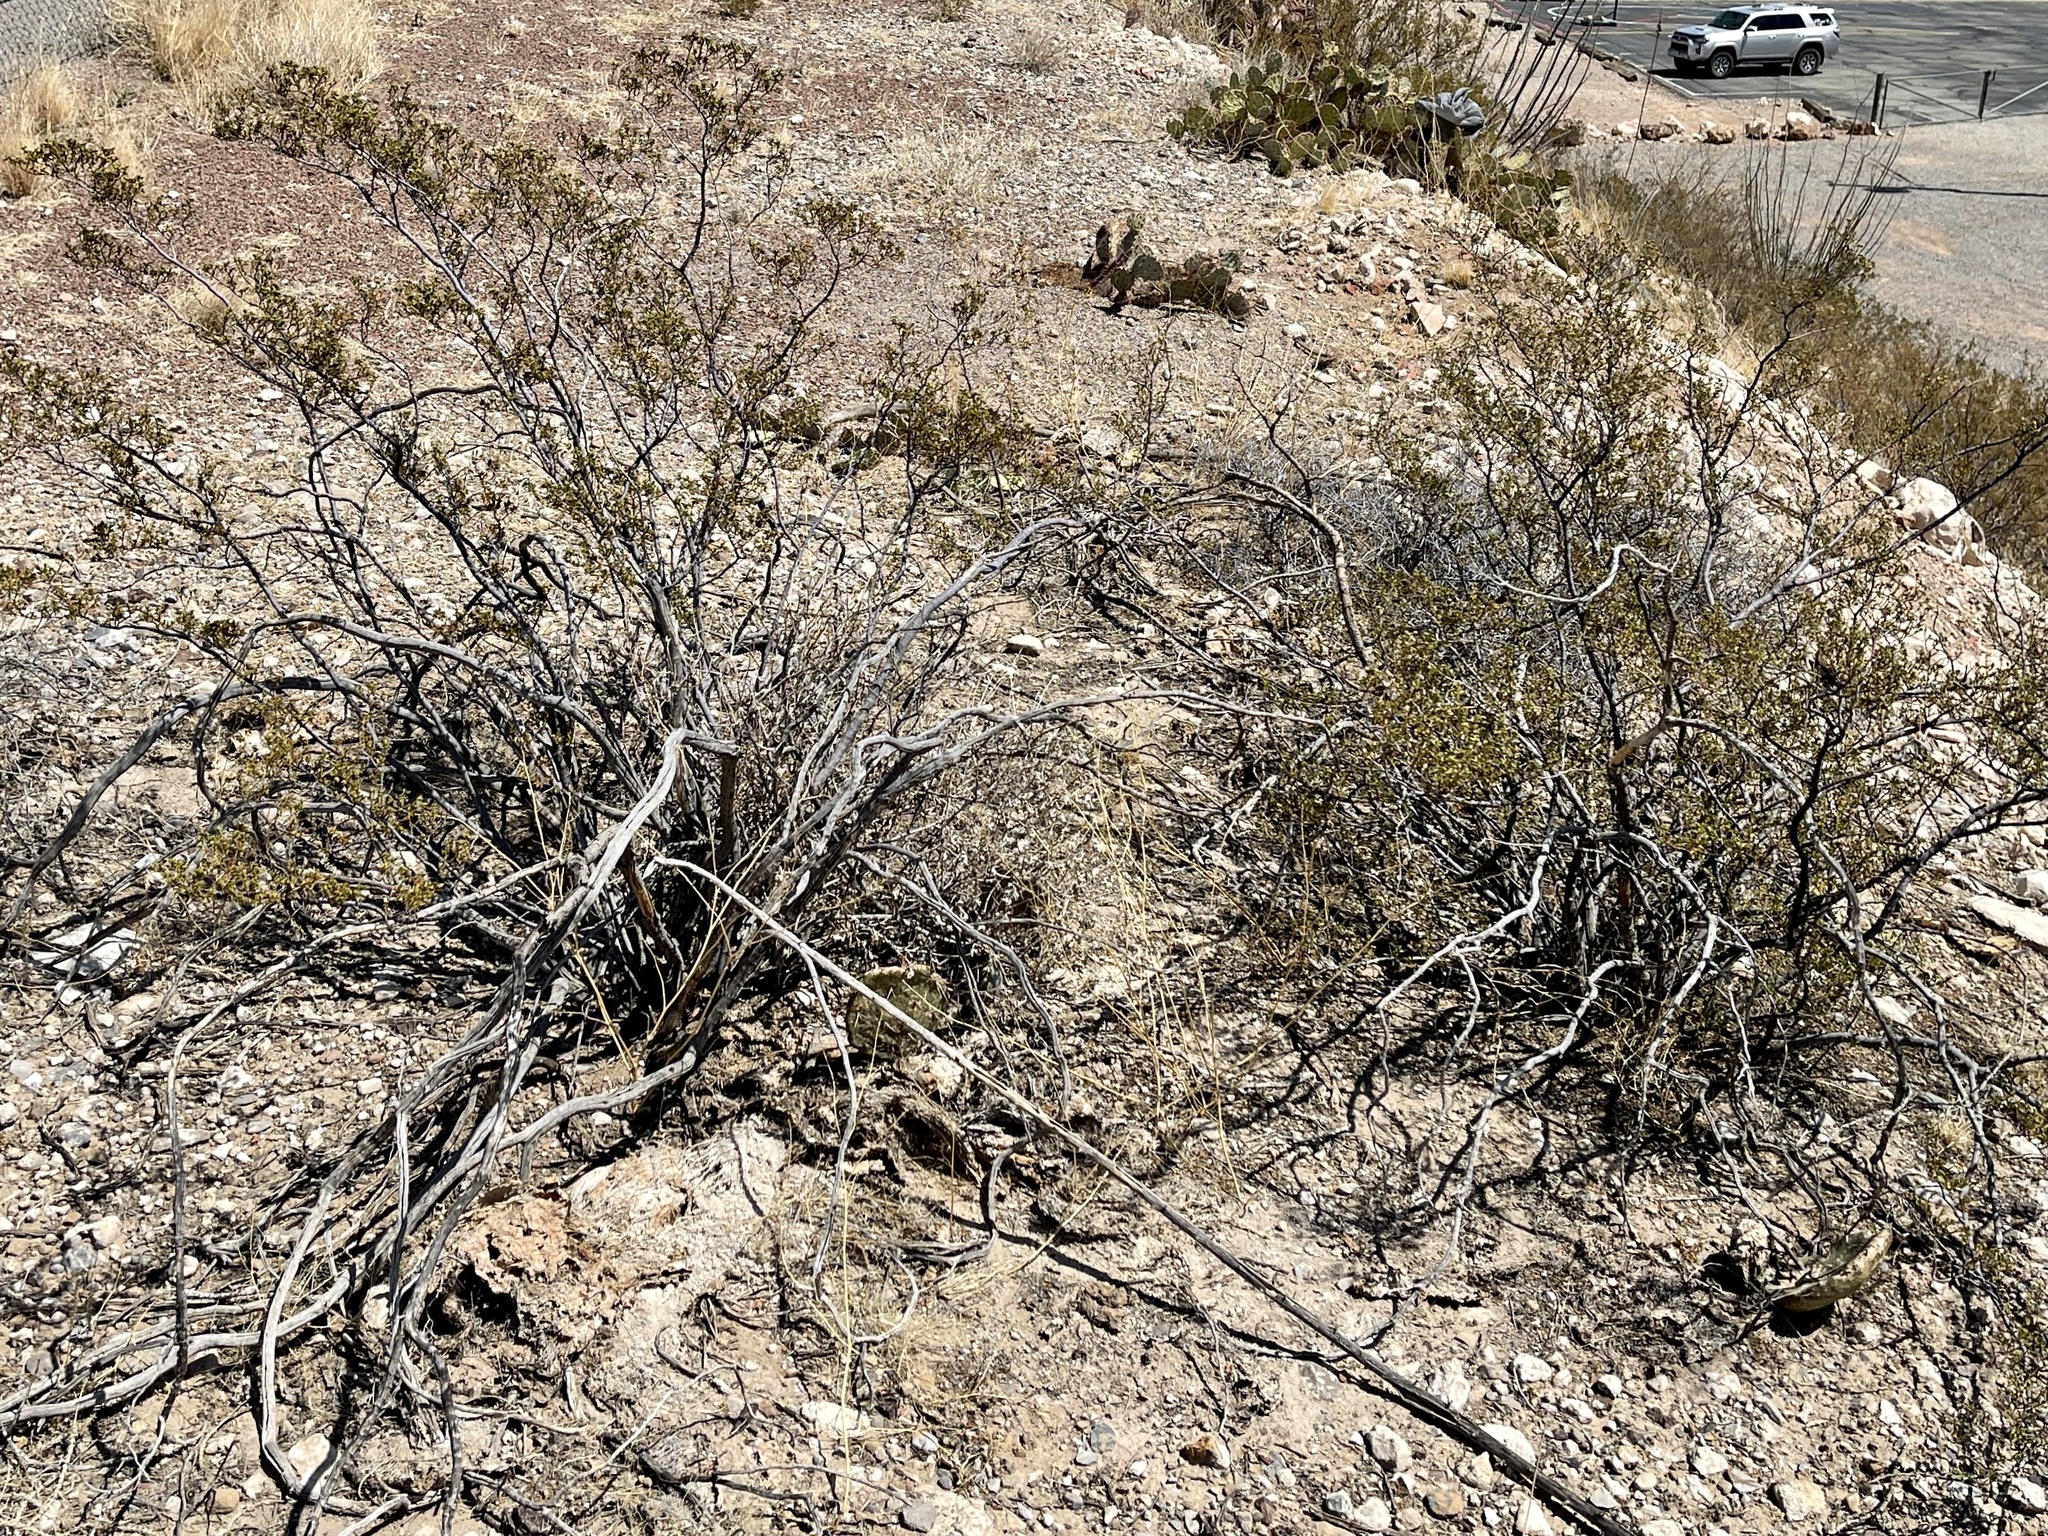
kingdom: Plantae
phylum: Tracheophyta
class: Magnoliopsida
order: Zygophyllales
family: Zygophyllaceae
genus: Larrea
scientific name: Larrea tridentata
